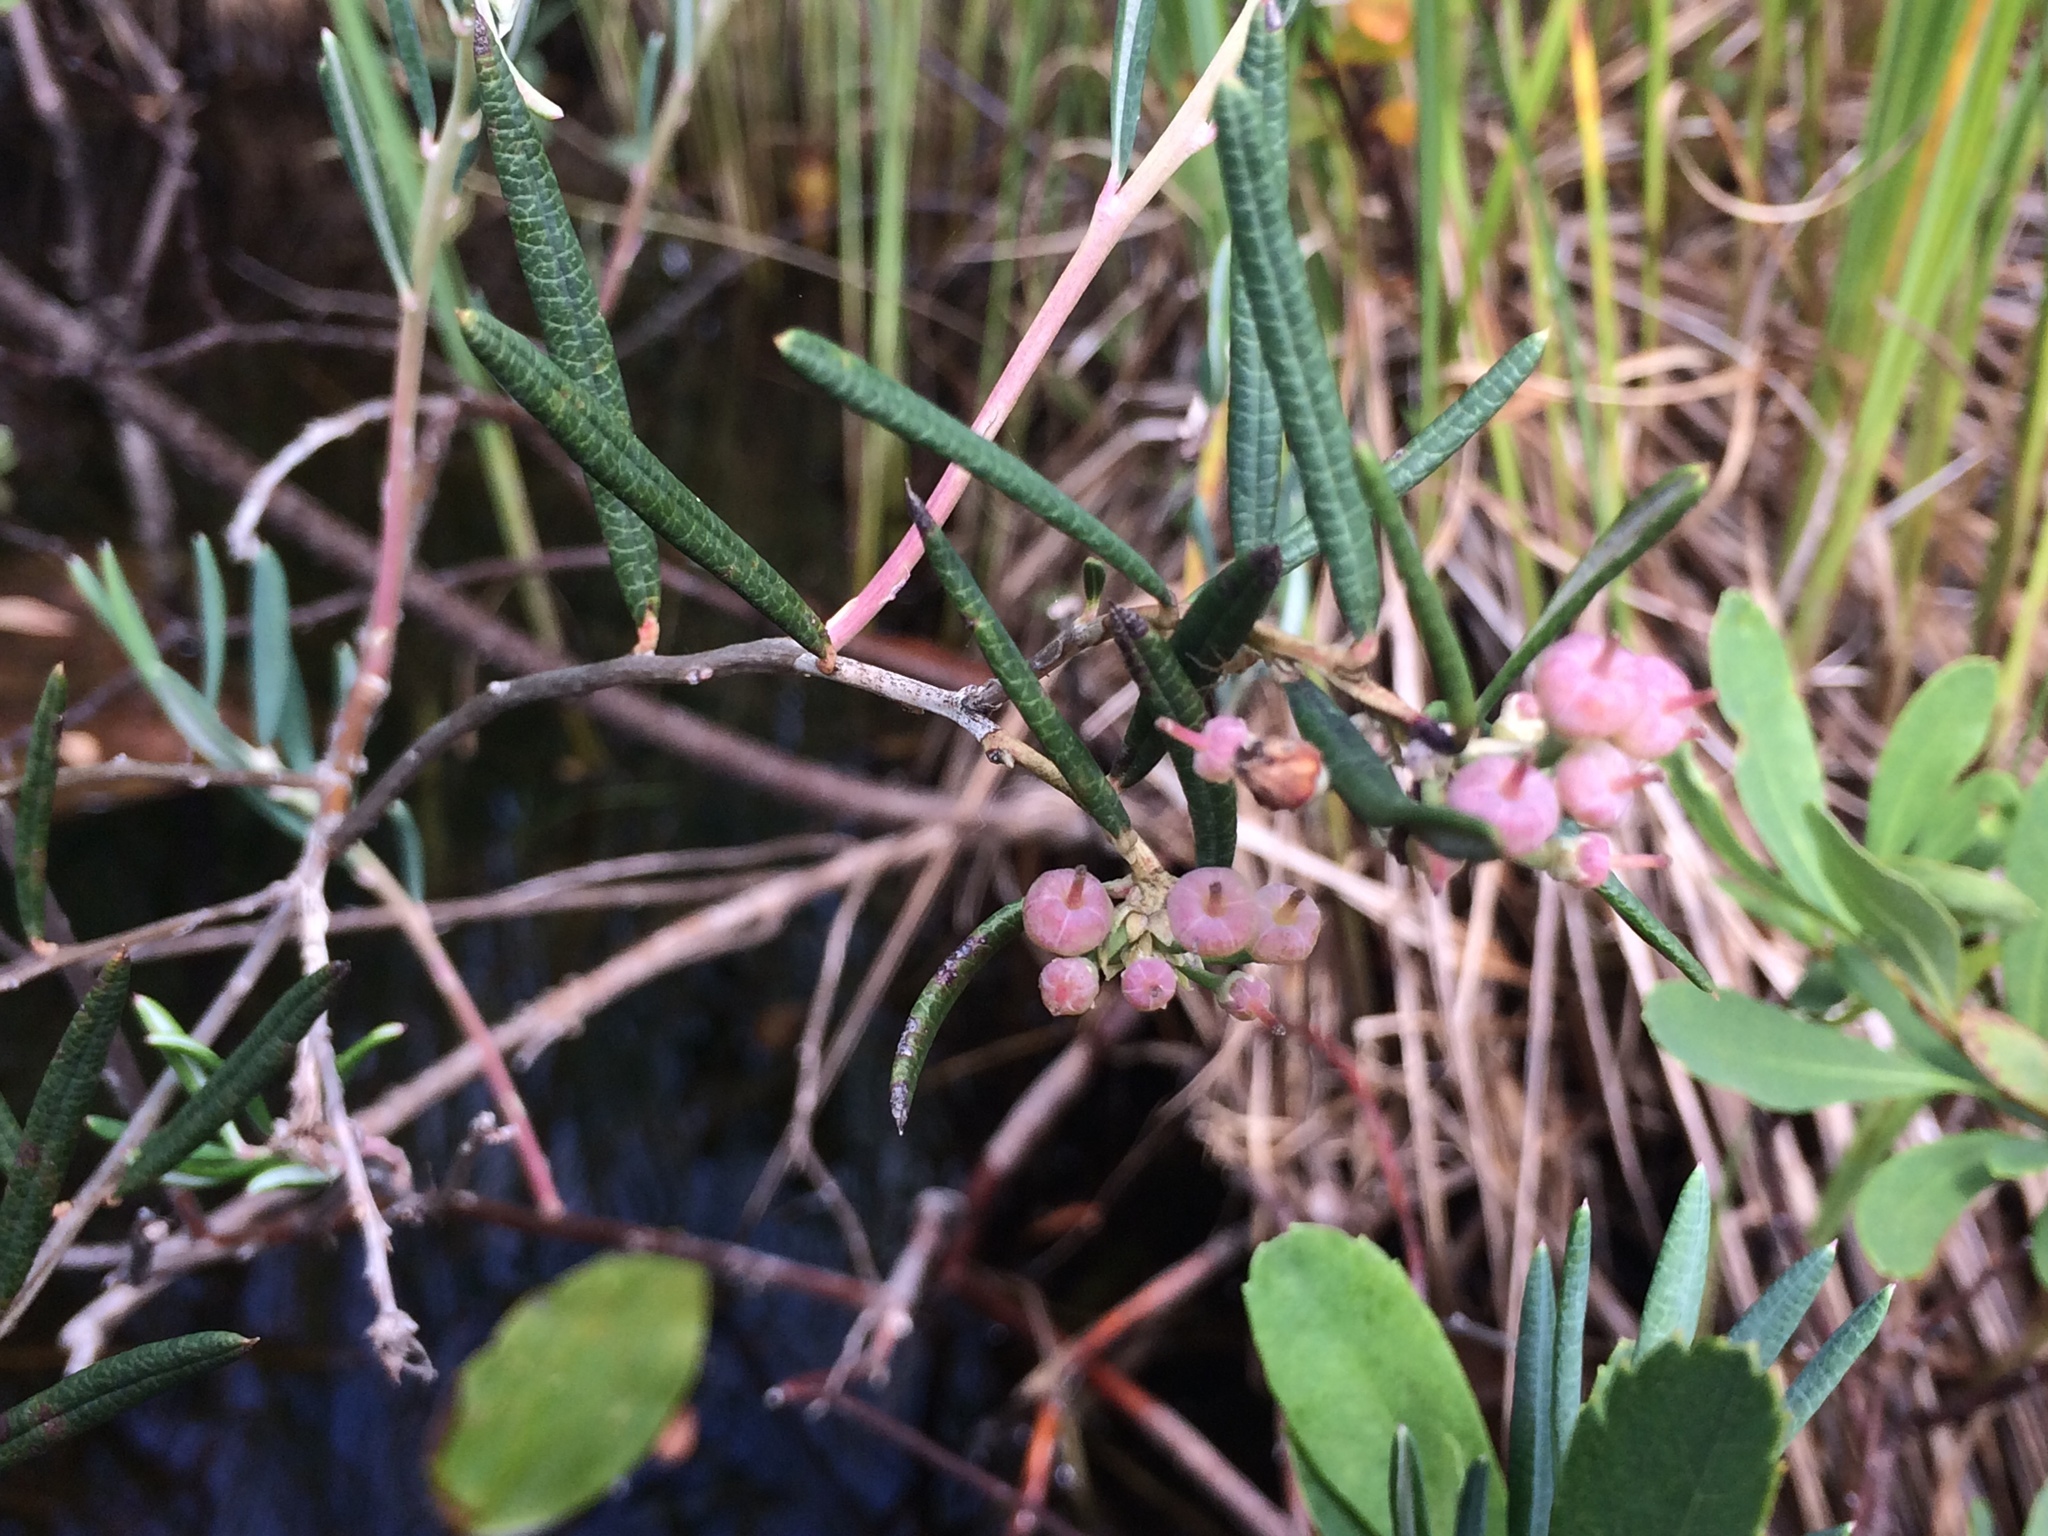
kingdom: Plantae
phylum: Tracheophyta
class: Magnoliopsida
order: Ericales
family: Ericaceae
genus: Andromeda
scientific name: Andromeda polifolia
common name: Bog-rosemary
